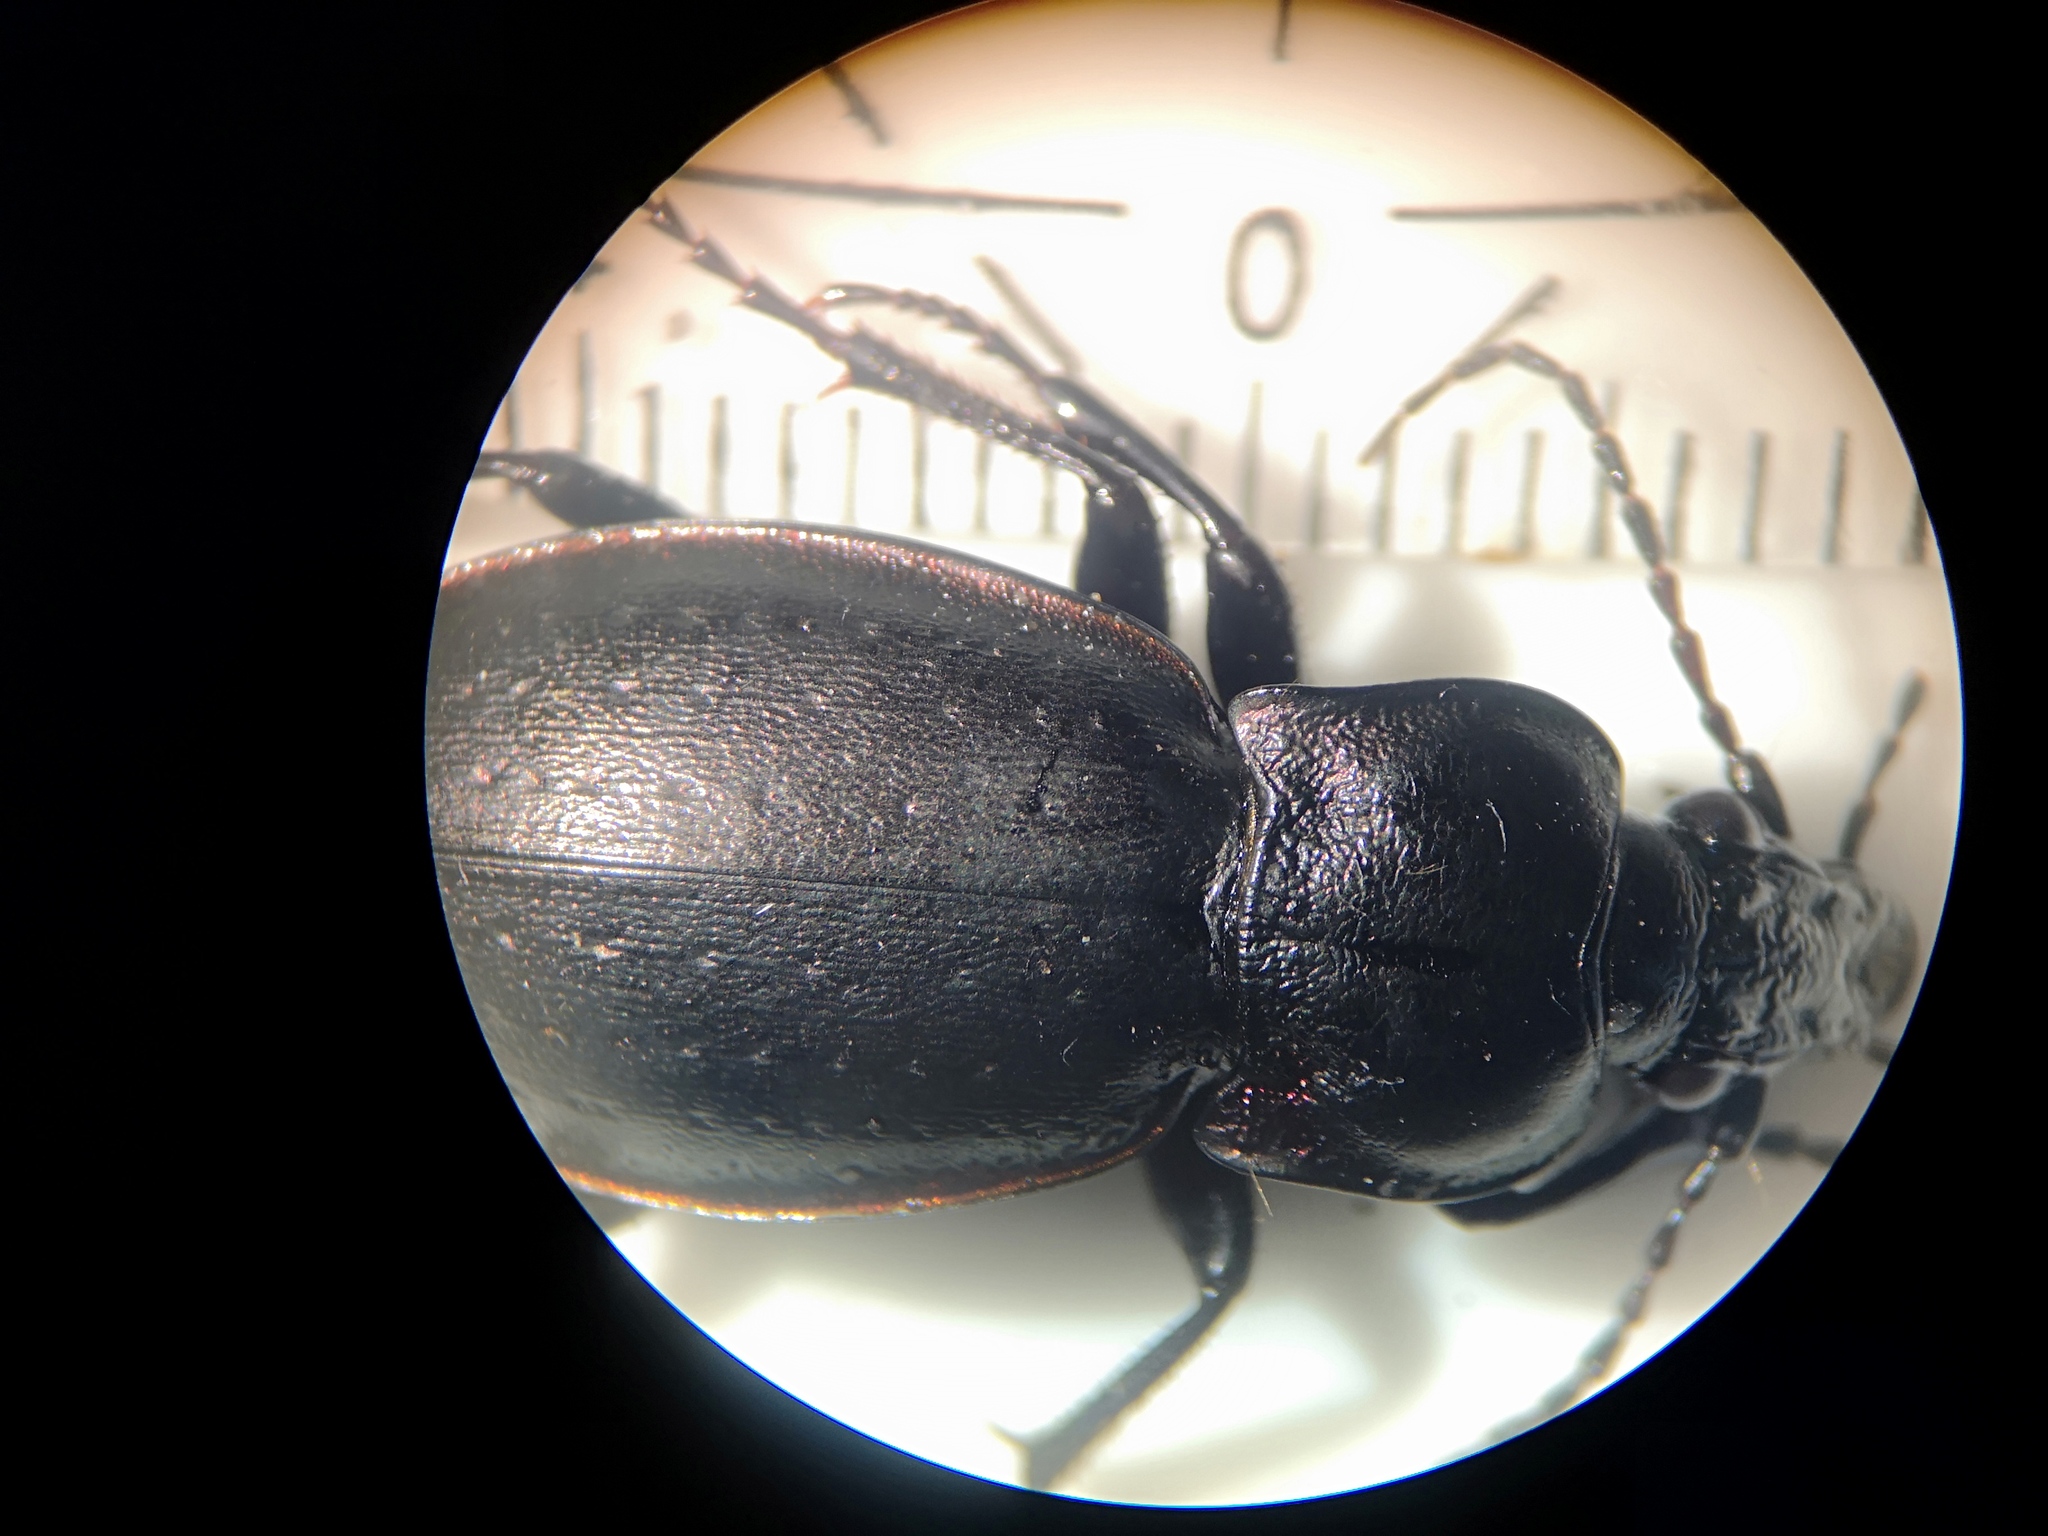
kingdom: Animalia
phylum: Arthropoda
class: Insecta
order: Coleoptera
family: Carabidae
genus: Carabus
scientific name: Carabus nemoralis
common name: European ground beetle
